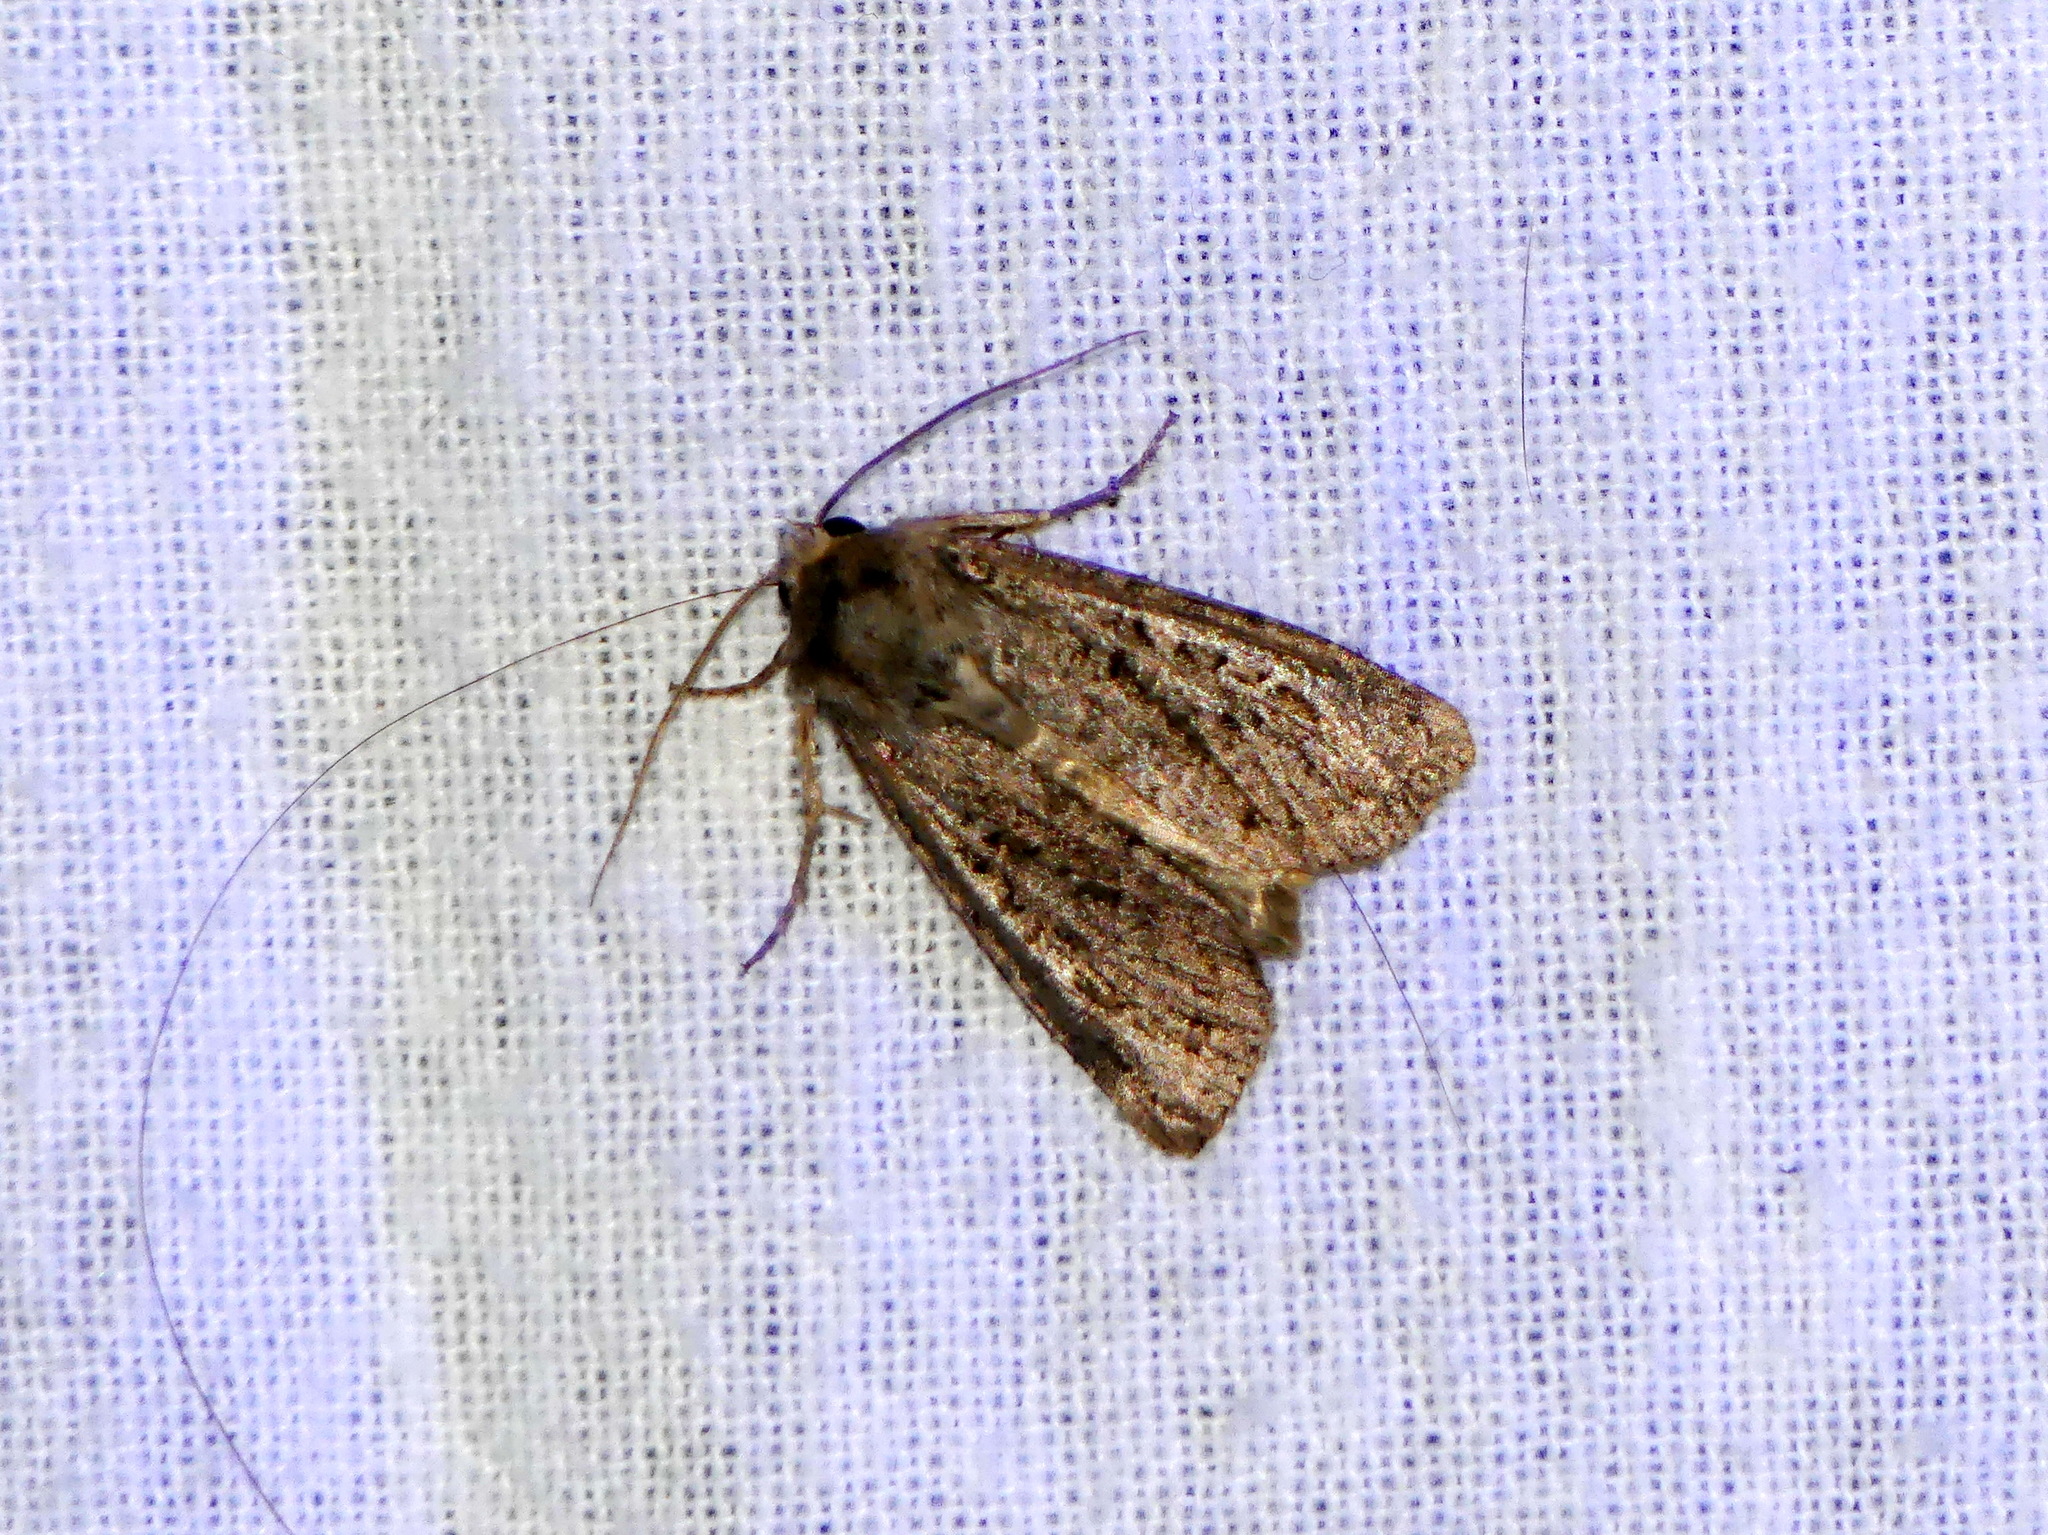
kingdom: Animalia
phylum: Arthropoda
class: Insecta
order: Lepidoptera
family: Noctuidae
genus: Polia
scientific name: Polia imbrifera
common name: Cloudy arches moth
